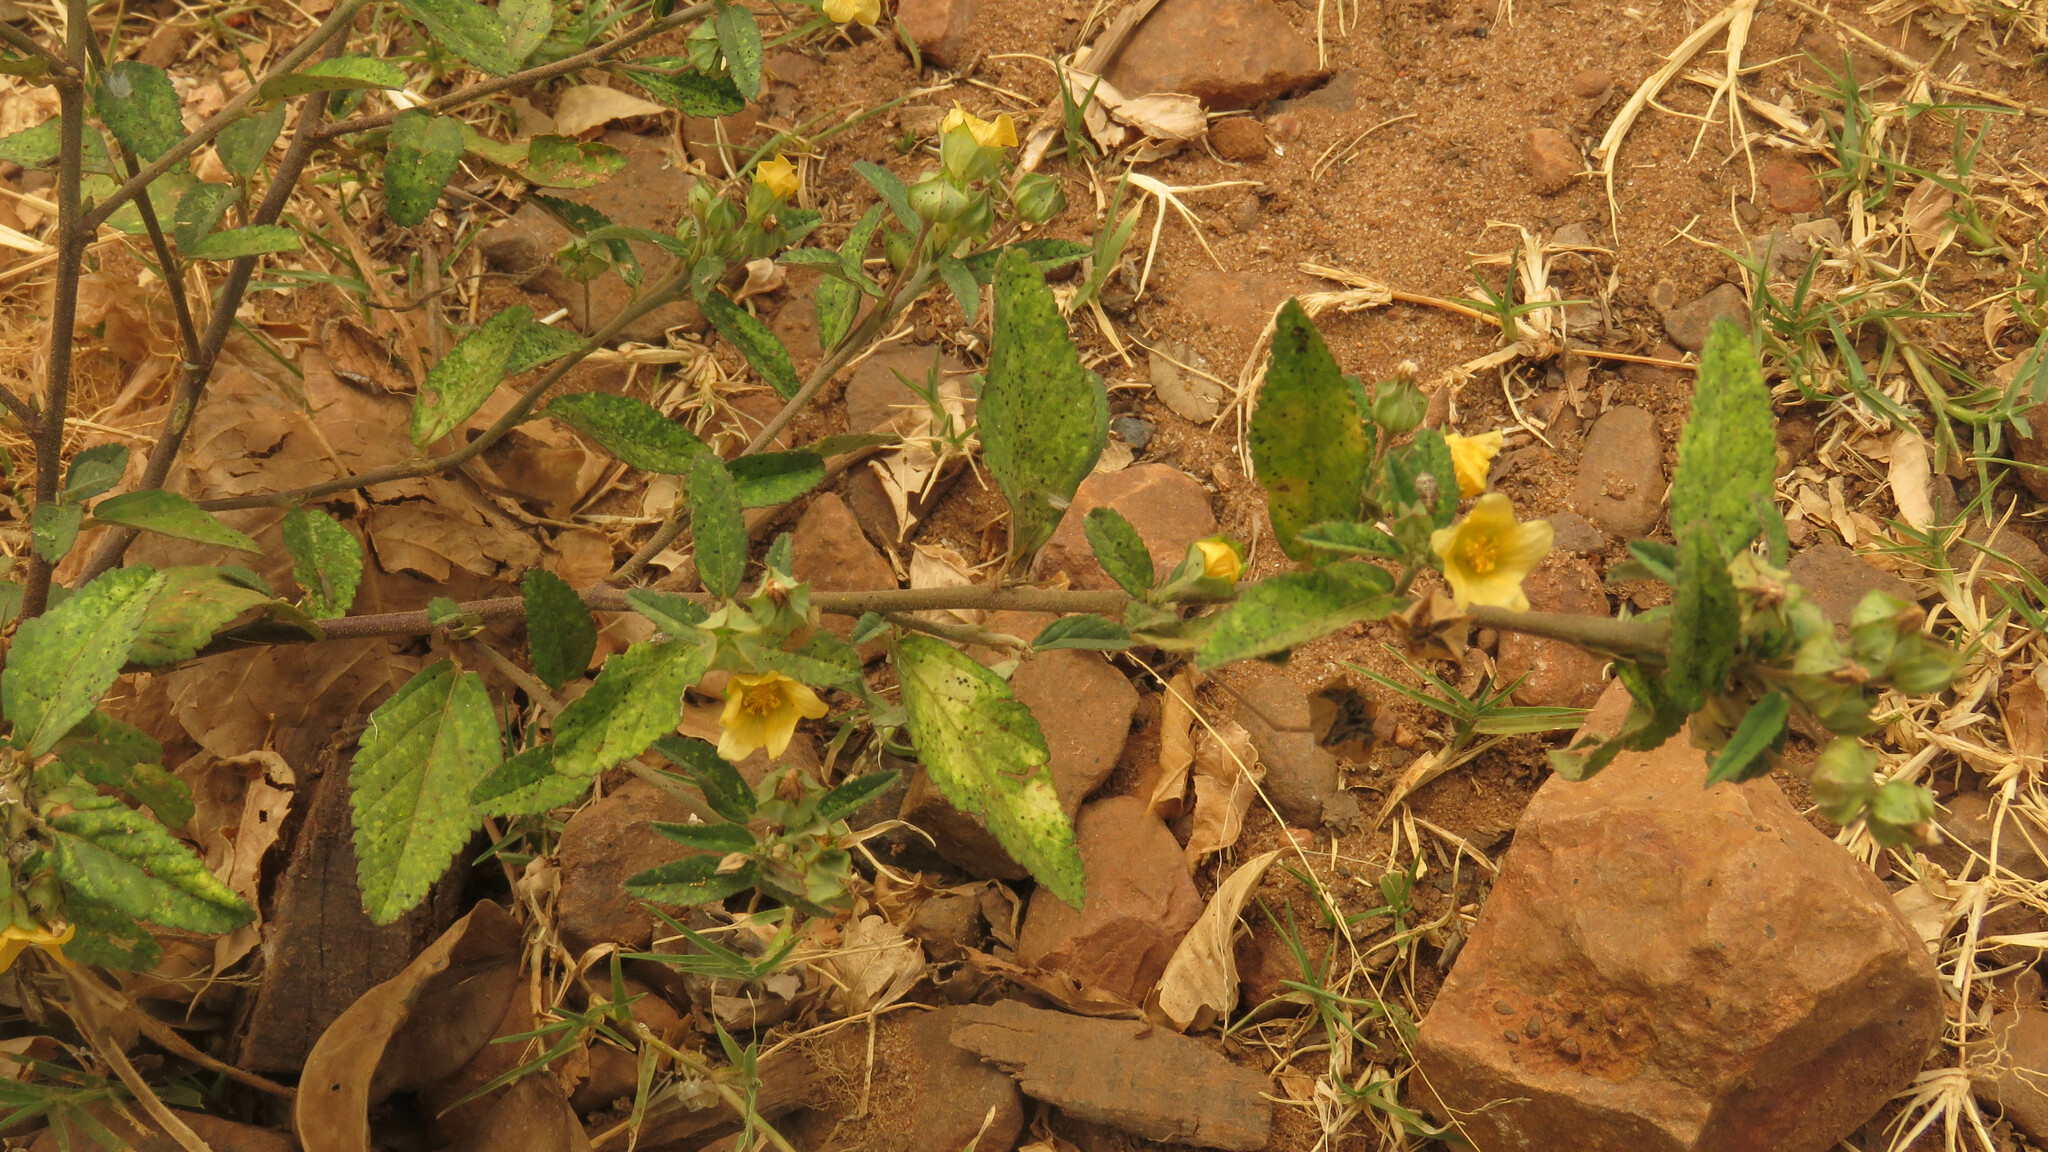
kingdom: Plantae
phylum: Tracheophyta
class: Magnoliopsida
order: Malvales
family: Malvaceae
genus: Sida
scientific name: Sida rhombifolia
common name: Queensland-hemp
